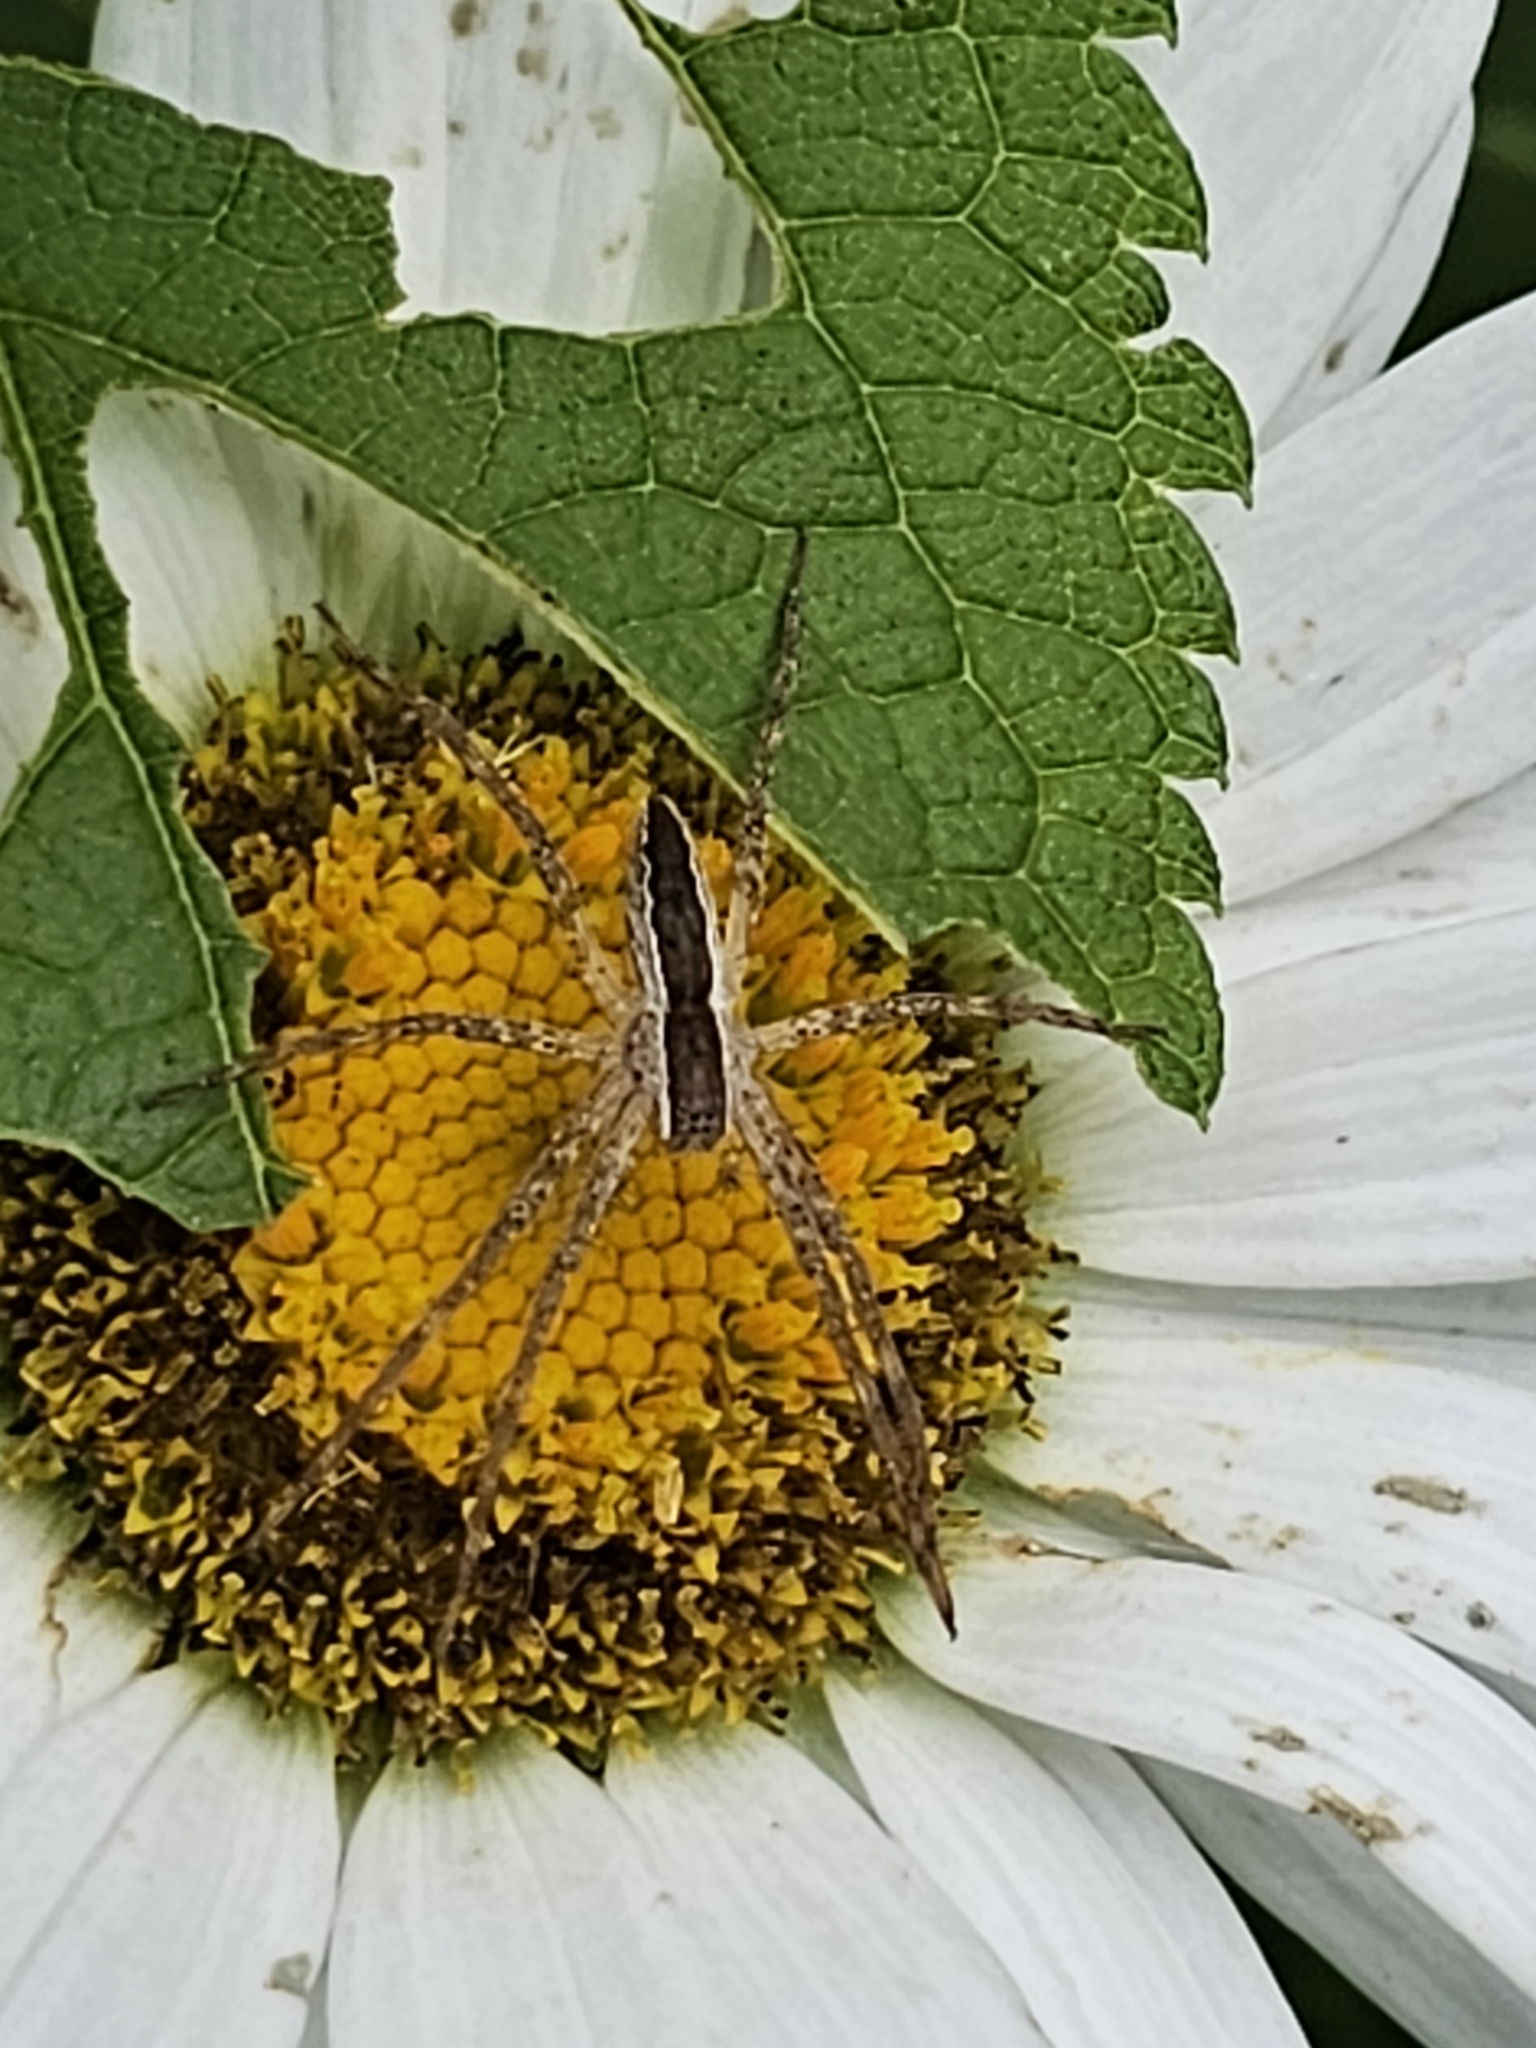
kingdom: Animalia
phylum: Arthropoda
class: Arachnida
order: Araneae
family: Pisauridae
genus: Pisaurina
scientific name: Pisaurina mira
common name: American nursery web spider
